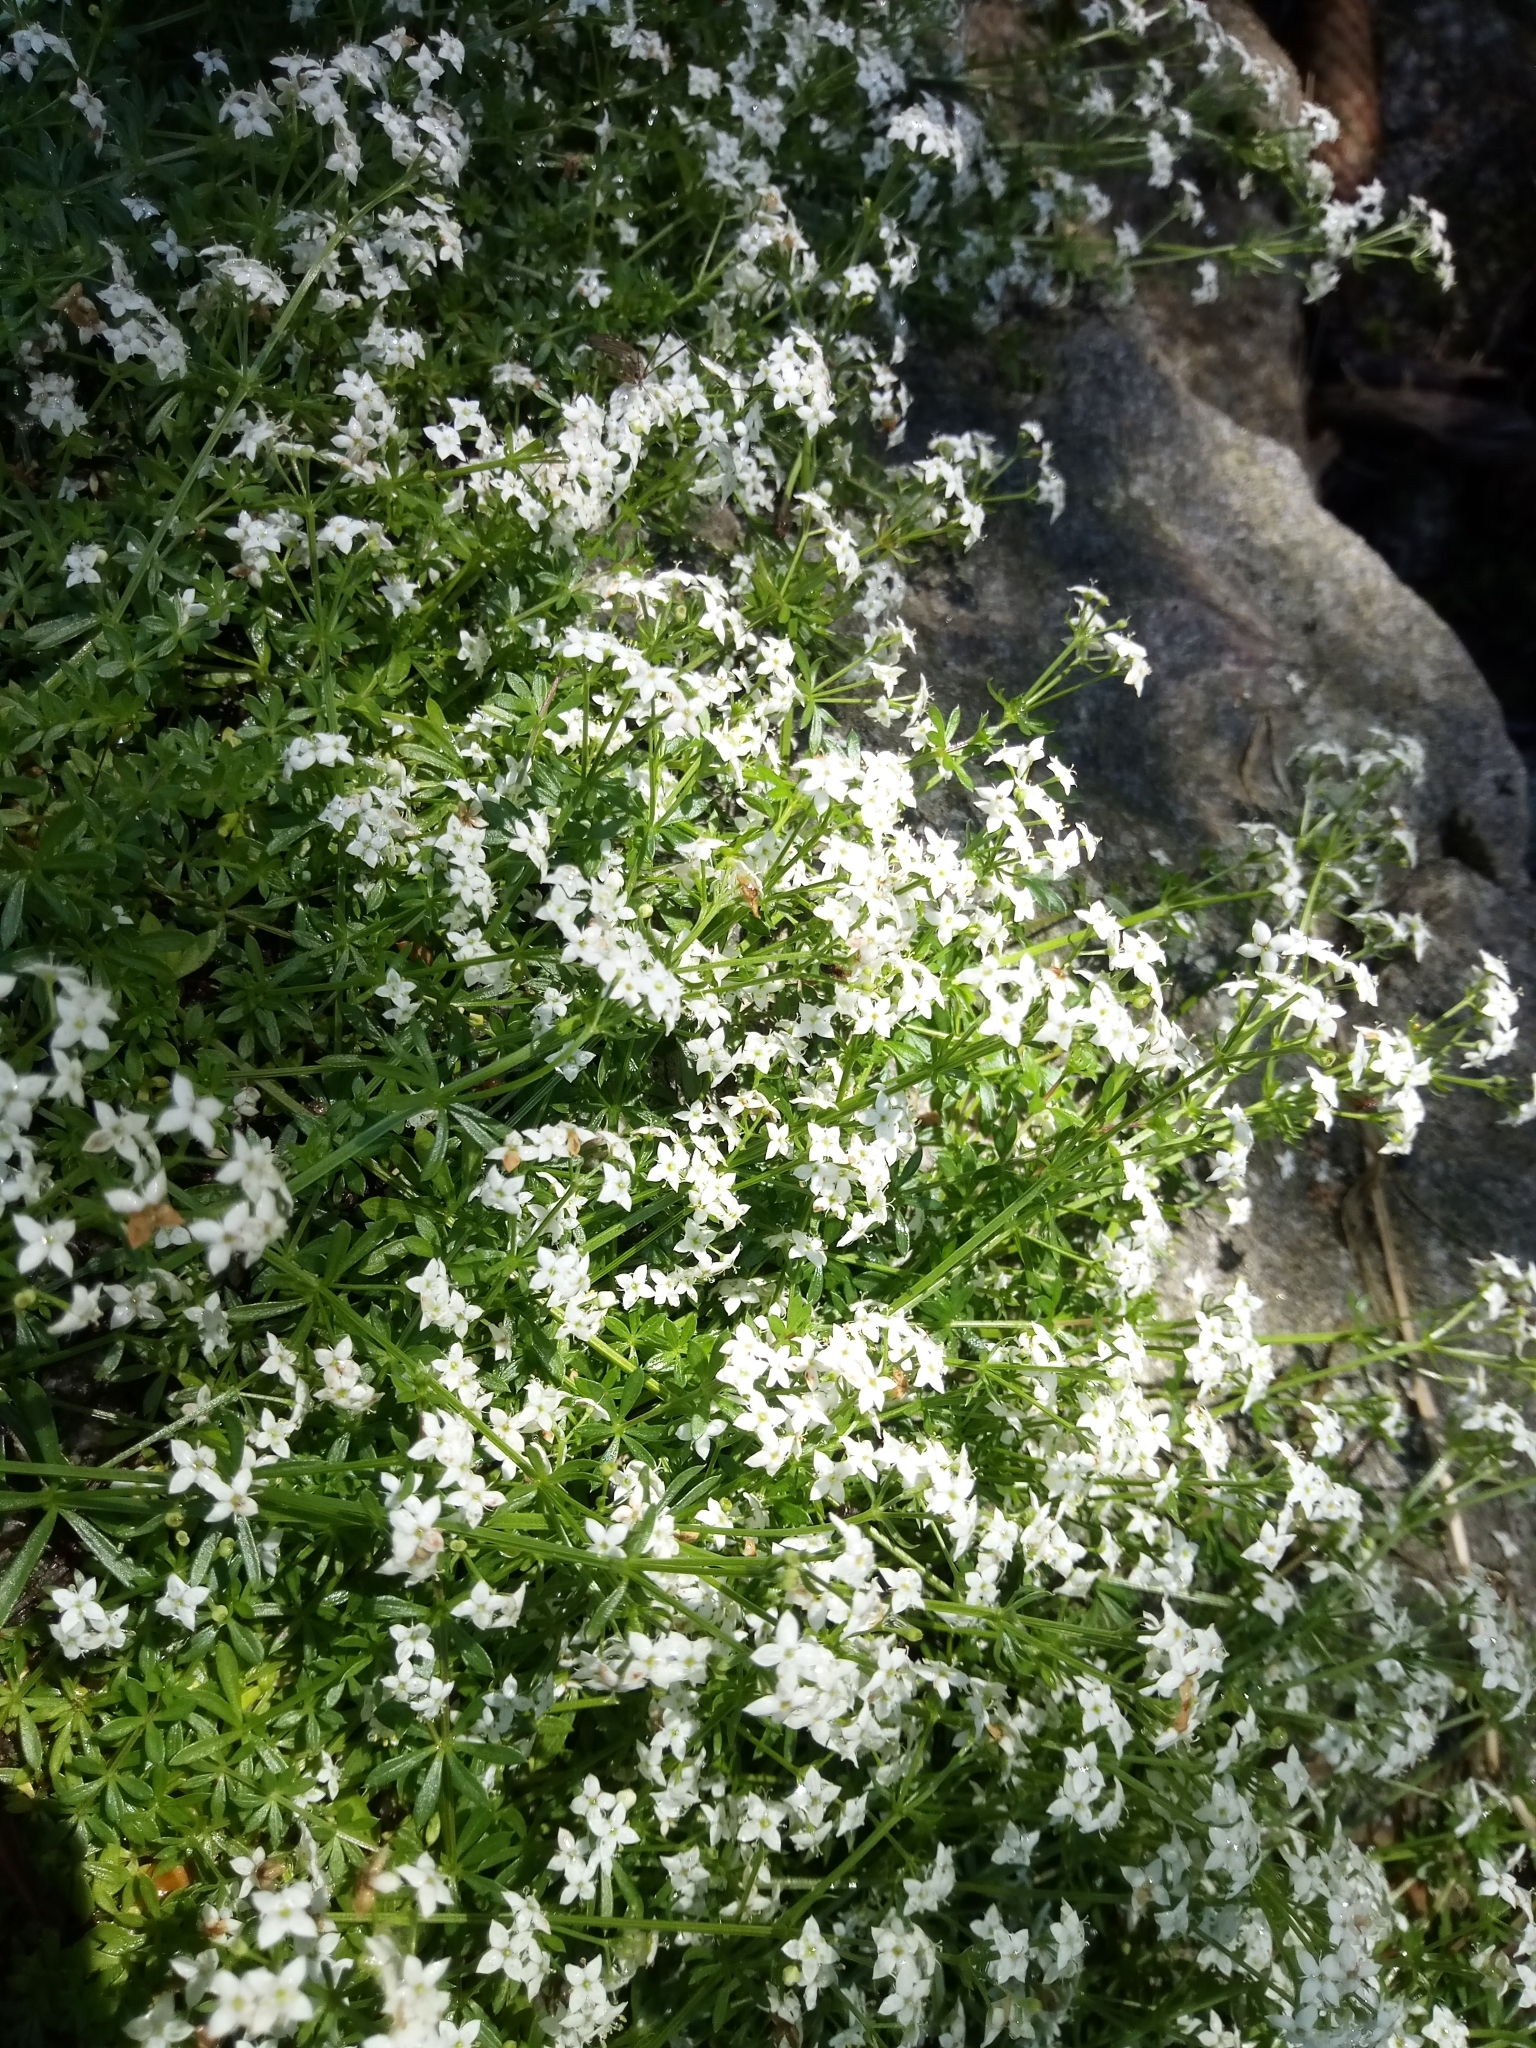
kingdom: Plantae
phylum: Tracheophyta
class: Magnoliopsida
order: Gentianales
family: Rubiaceae
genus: Galium
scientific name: Galium saxatile
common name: Heath bedstraw
